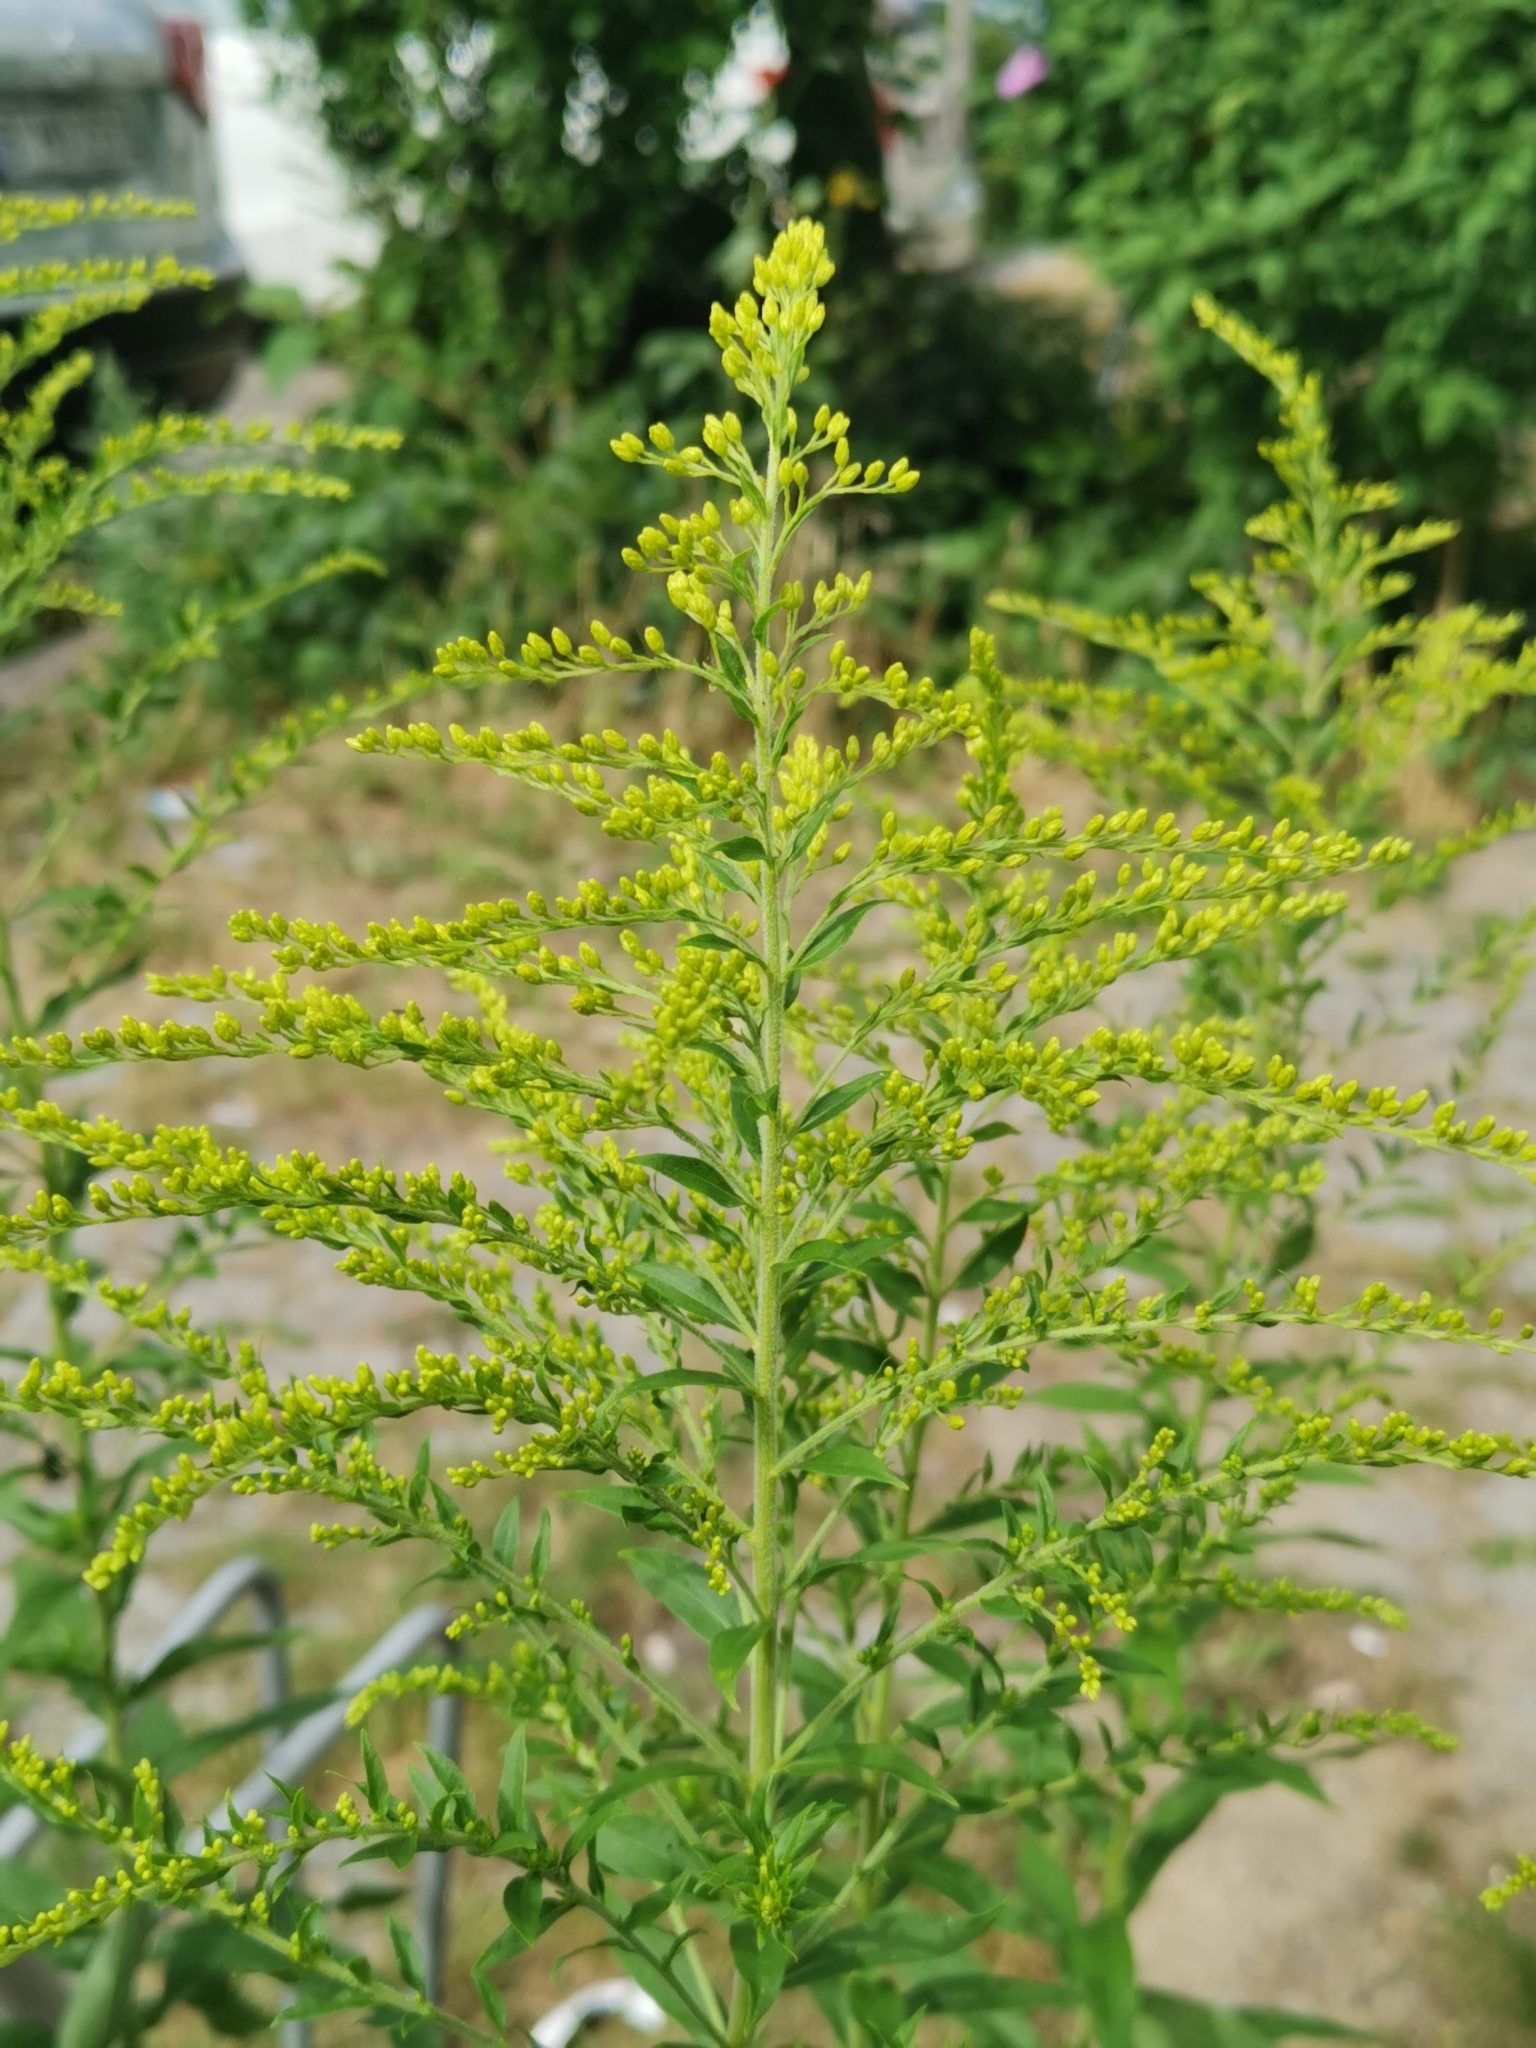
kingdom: Plantae
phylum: Tracheophyta
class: Magnoliopsida
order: Asterales
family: Asteraceae
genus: Solidago
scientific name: Solidago canadensis
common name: Canada goldenrod
